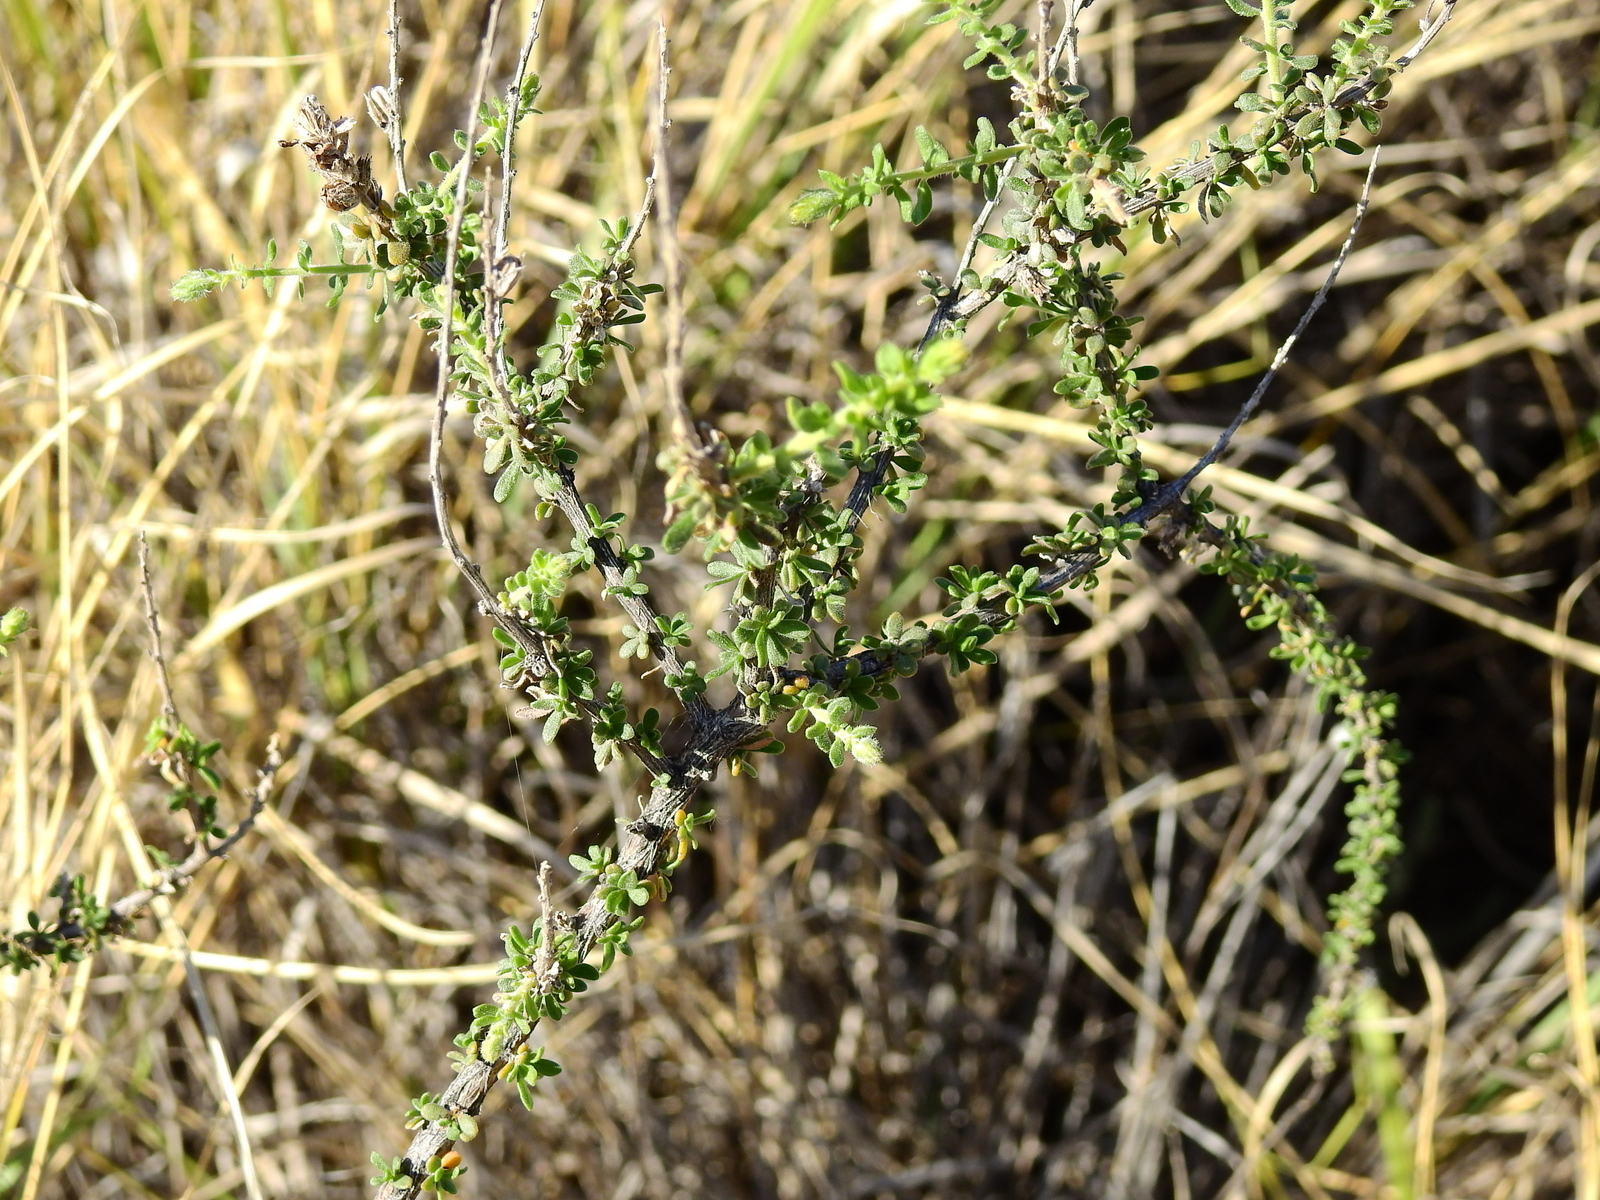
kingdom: Plantae
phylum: Tracheophyta
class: Magnoliopsida
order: Lamiales
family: Verbenaceae
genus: Mulguraea
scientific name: Mulguraea aspera
